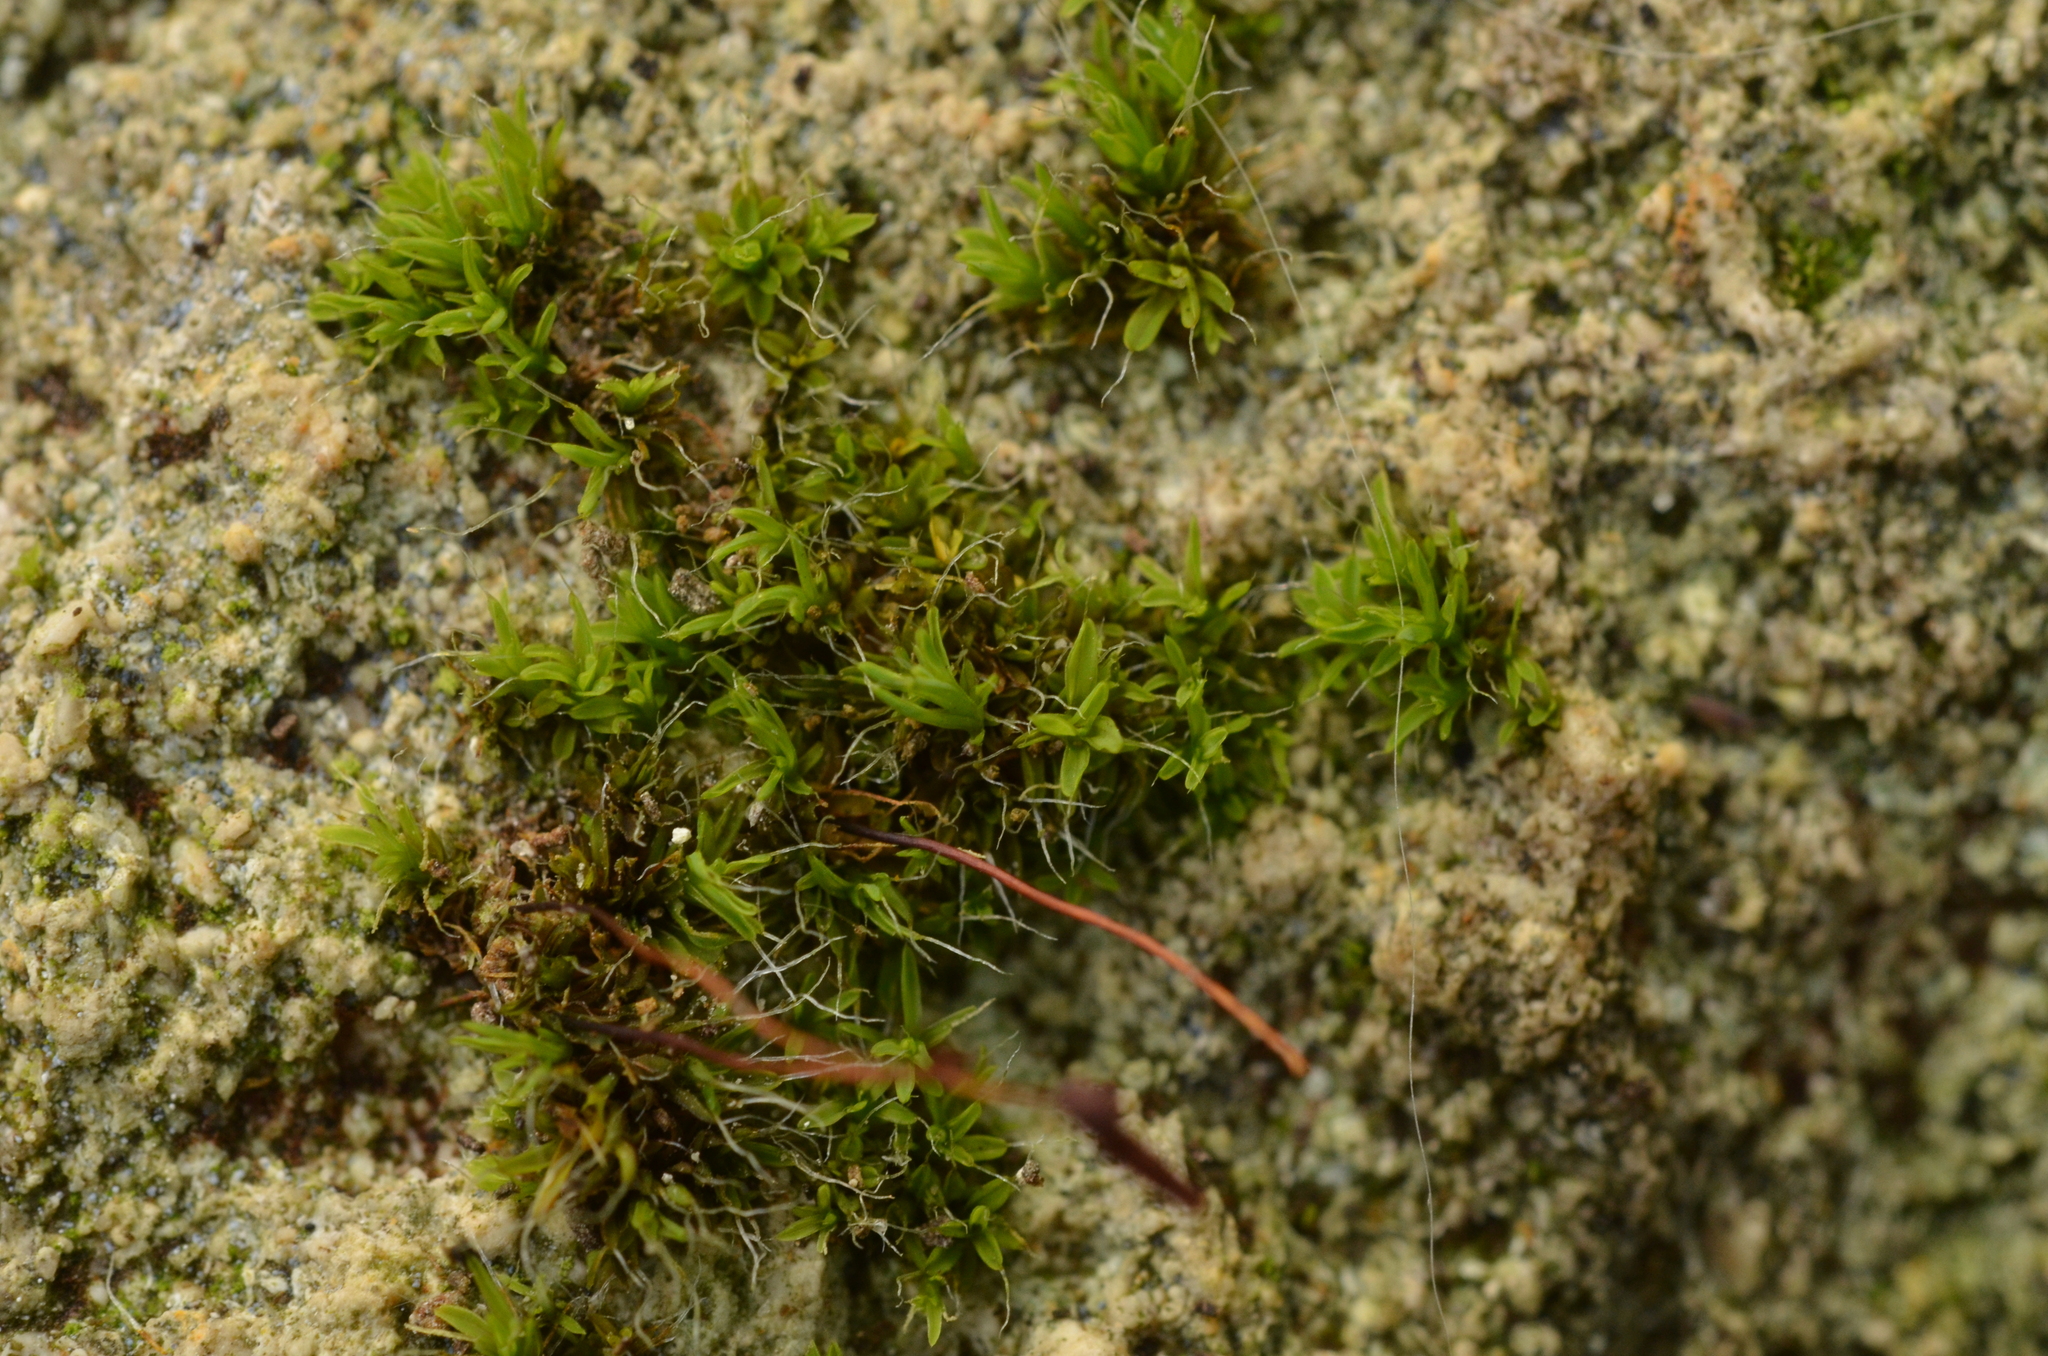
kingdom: Plantae
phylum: Bryophyta
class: Bryopsida
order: Pottiales
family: Pottiaceae
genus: Tortula
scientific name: Tortula muralis
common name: Wall screw-moss
